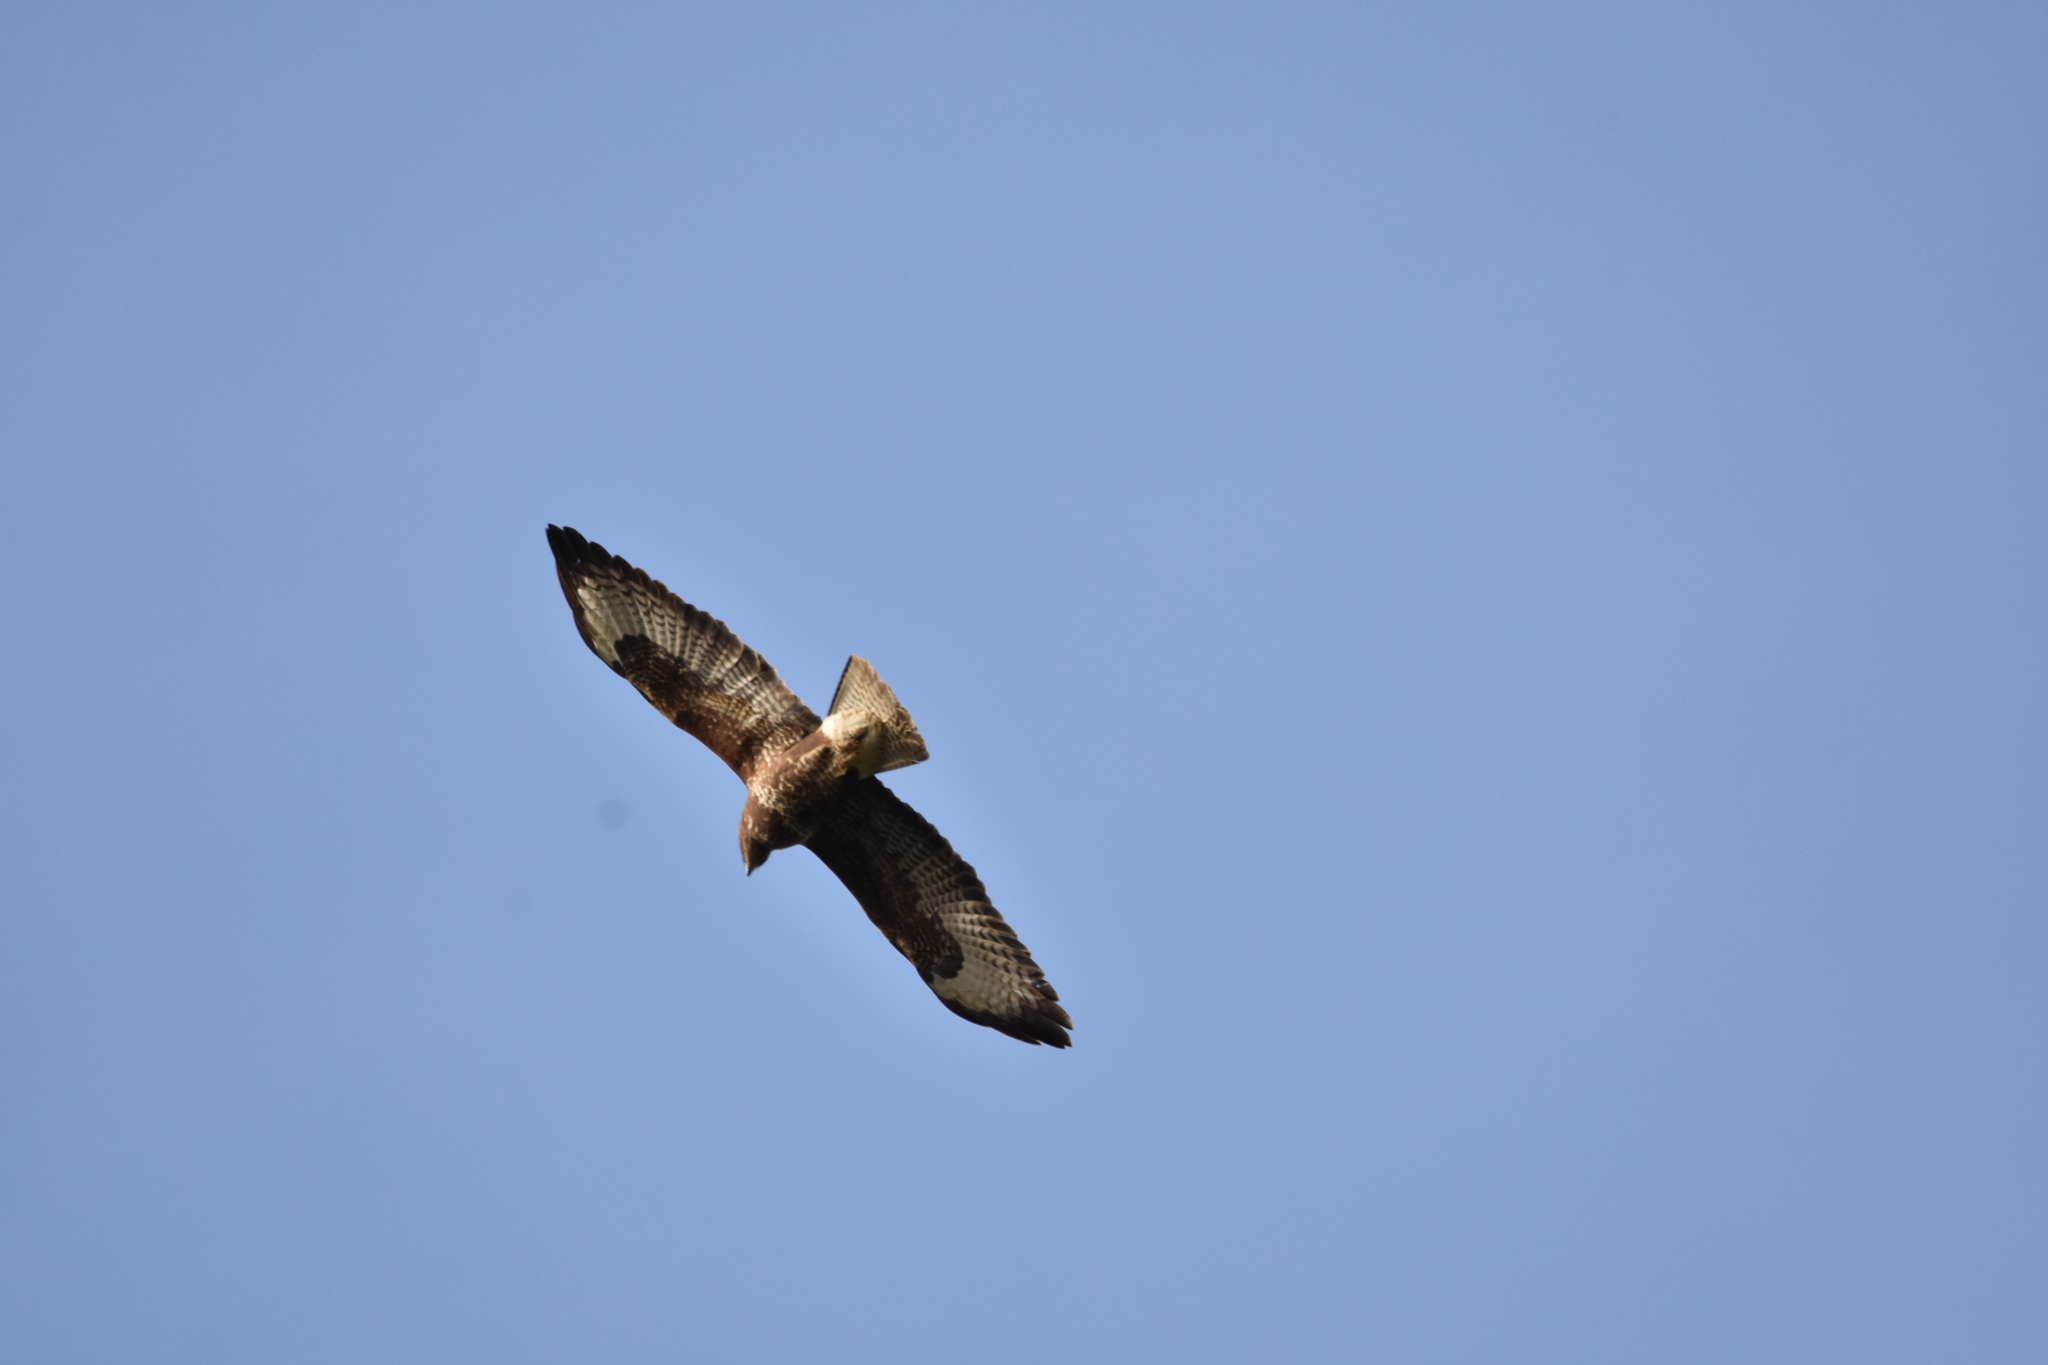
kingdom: Animalia
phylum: Chordata
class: Aves
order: Accipitriformes
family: Accipitridae
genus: Buteo
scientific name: Buteo buteo
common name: Common buzzard
